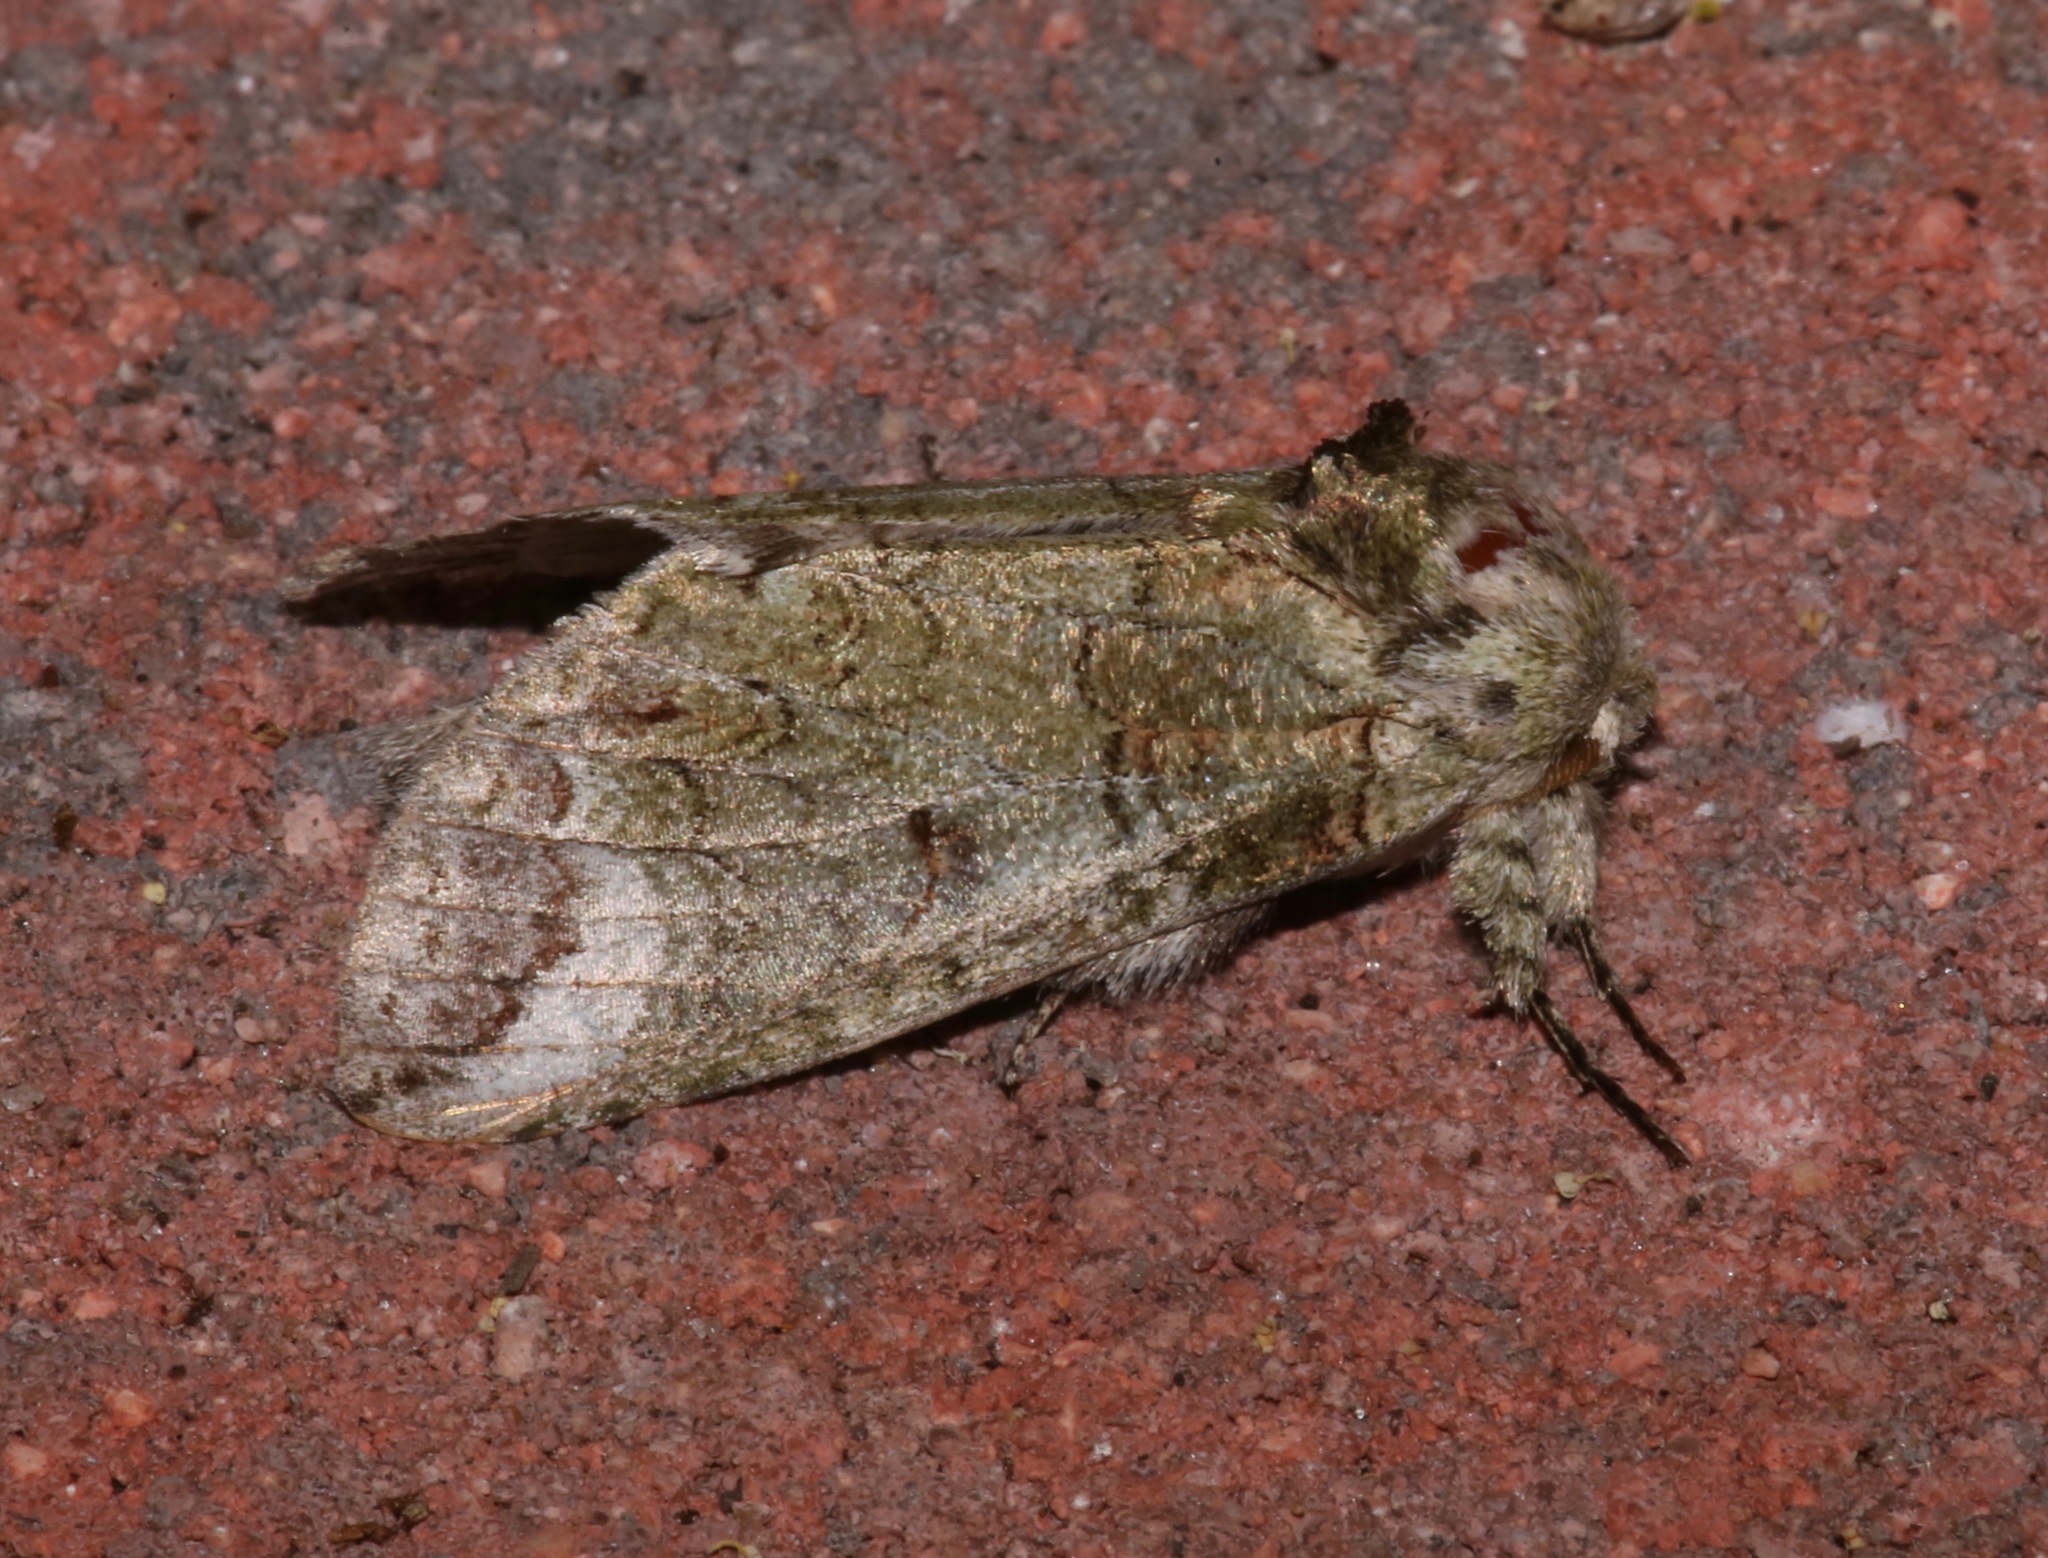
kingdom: Animalia
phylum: Arthropoda
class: Insecta
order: Lepidoptera
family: Notodontidae
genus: Heterocampa
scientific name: Heterocampa astarte
